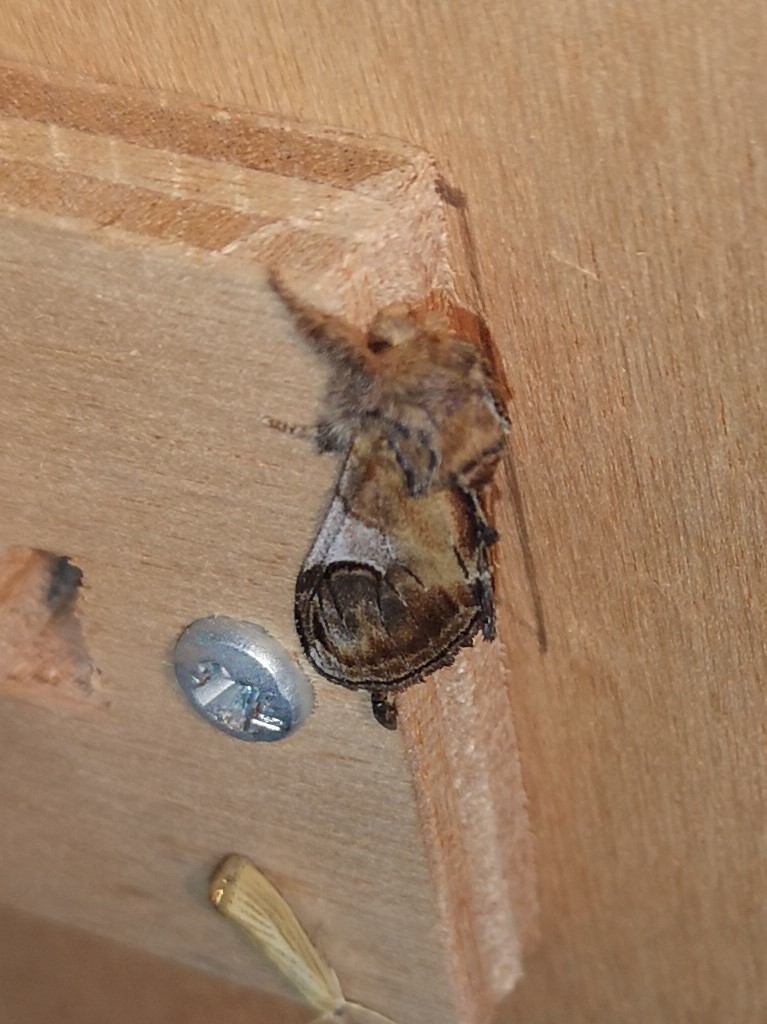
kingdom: Animalia
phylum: Arthropoda
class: Insecta
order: Lepidoptera
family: Notodontidae
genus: Notodonta
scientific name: Notodonta ziczac
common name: Pebble prominent
